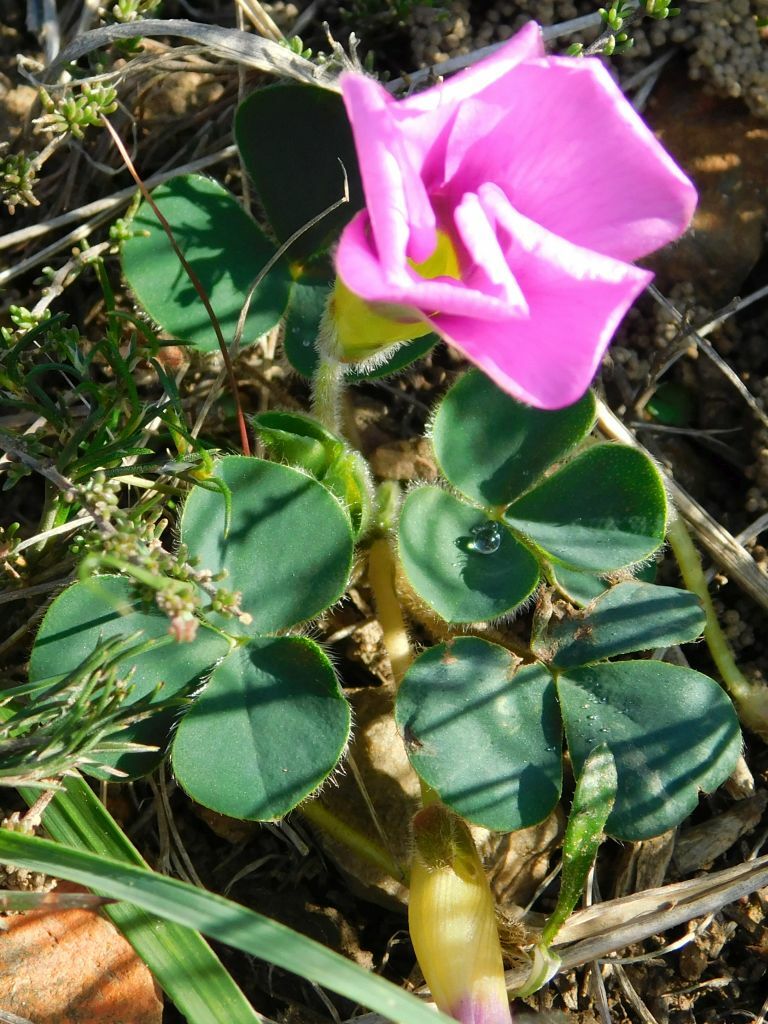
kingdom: Plantae
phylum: Tracheophyta
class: Magnoliopsida
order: Oxalidales
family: Oxalidaceae
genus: Oxalis
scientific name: Oxalis purpurea
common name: Purple woodsorrel
